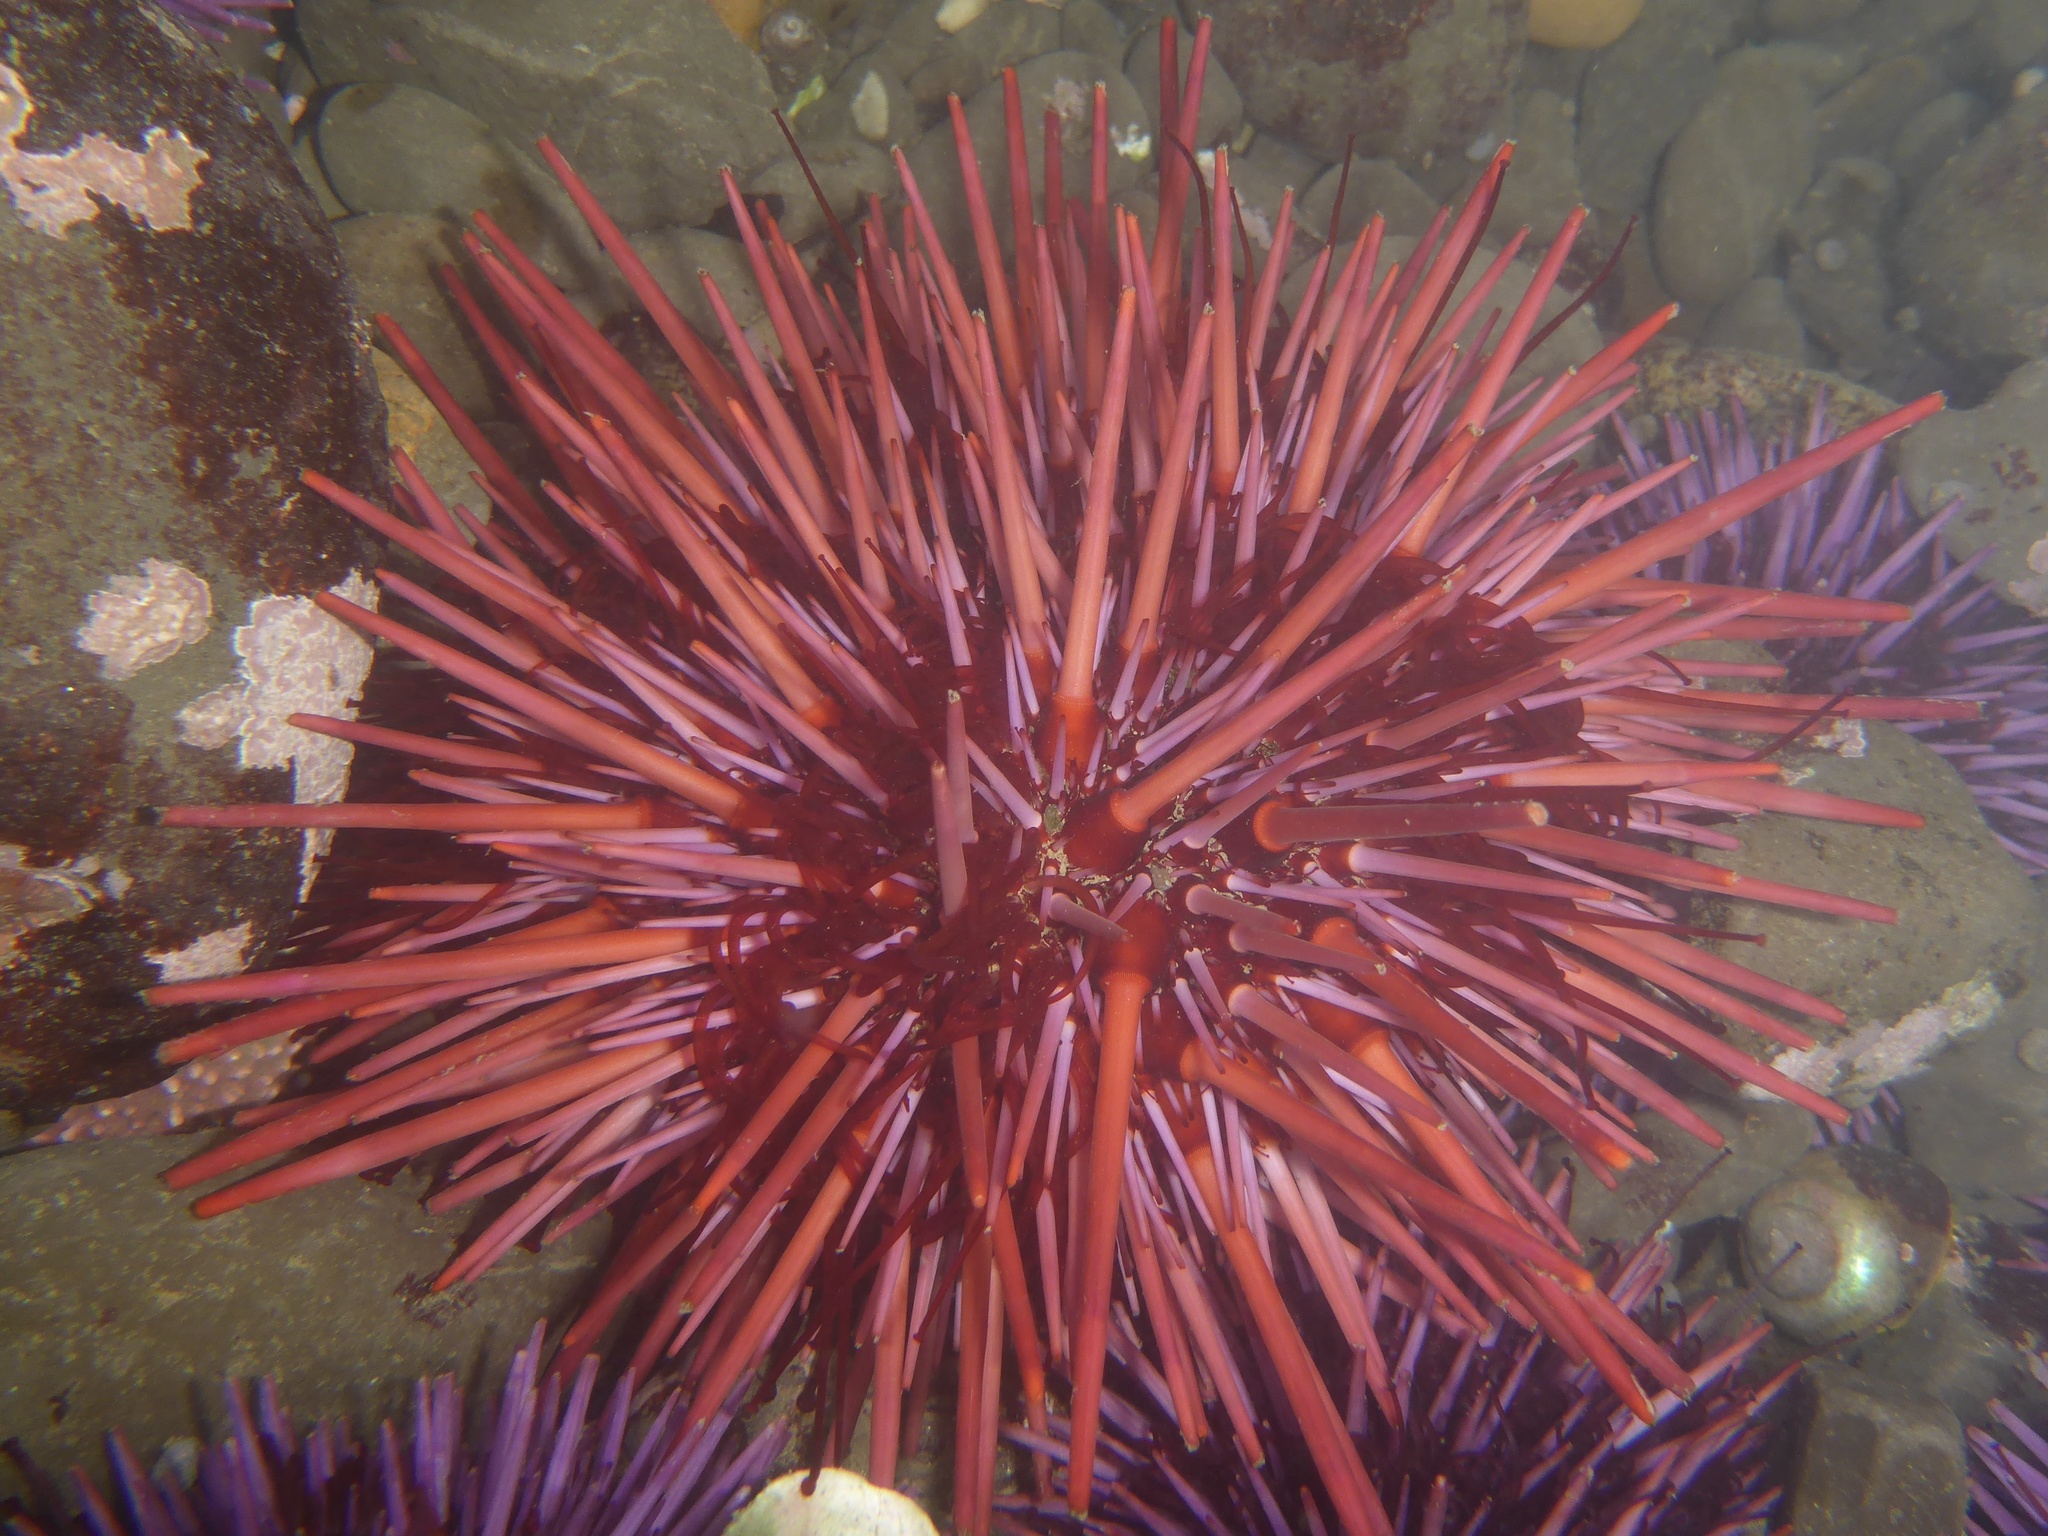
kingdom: Animalia
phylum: Echinodermata
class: Echinoidea
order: Camarodonta
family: Strongylocentrotidae
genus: Mesocentrotus
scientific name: Mesocentrotus franciscanus
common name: Red sea urchin
